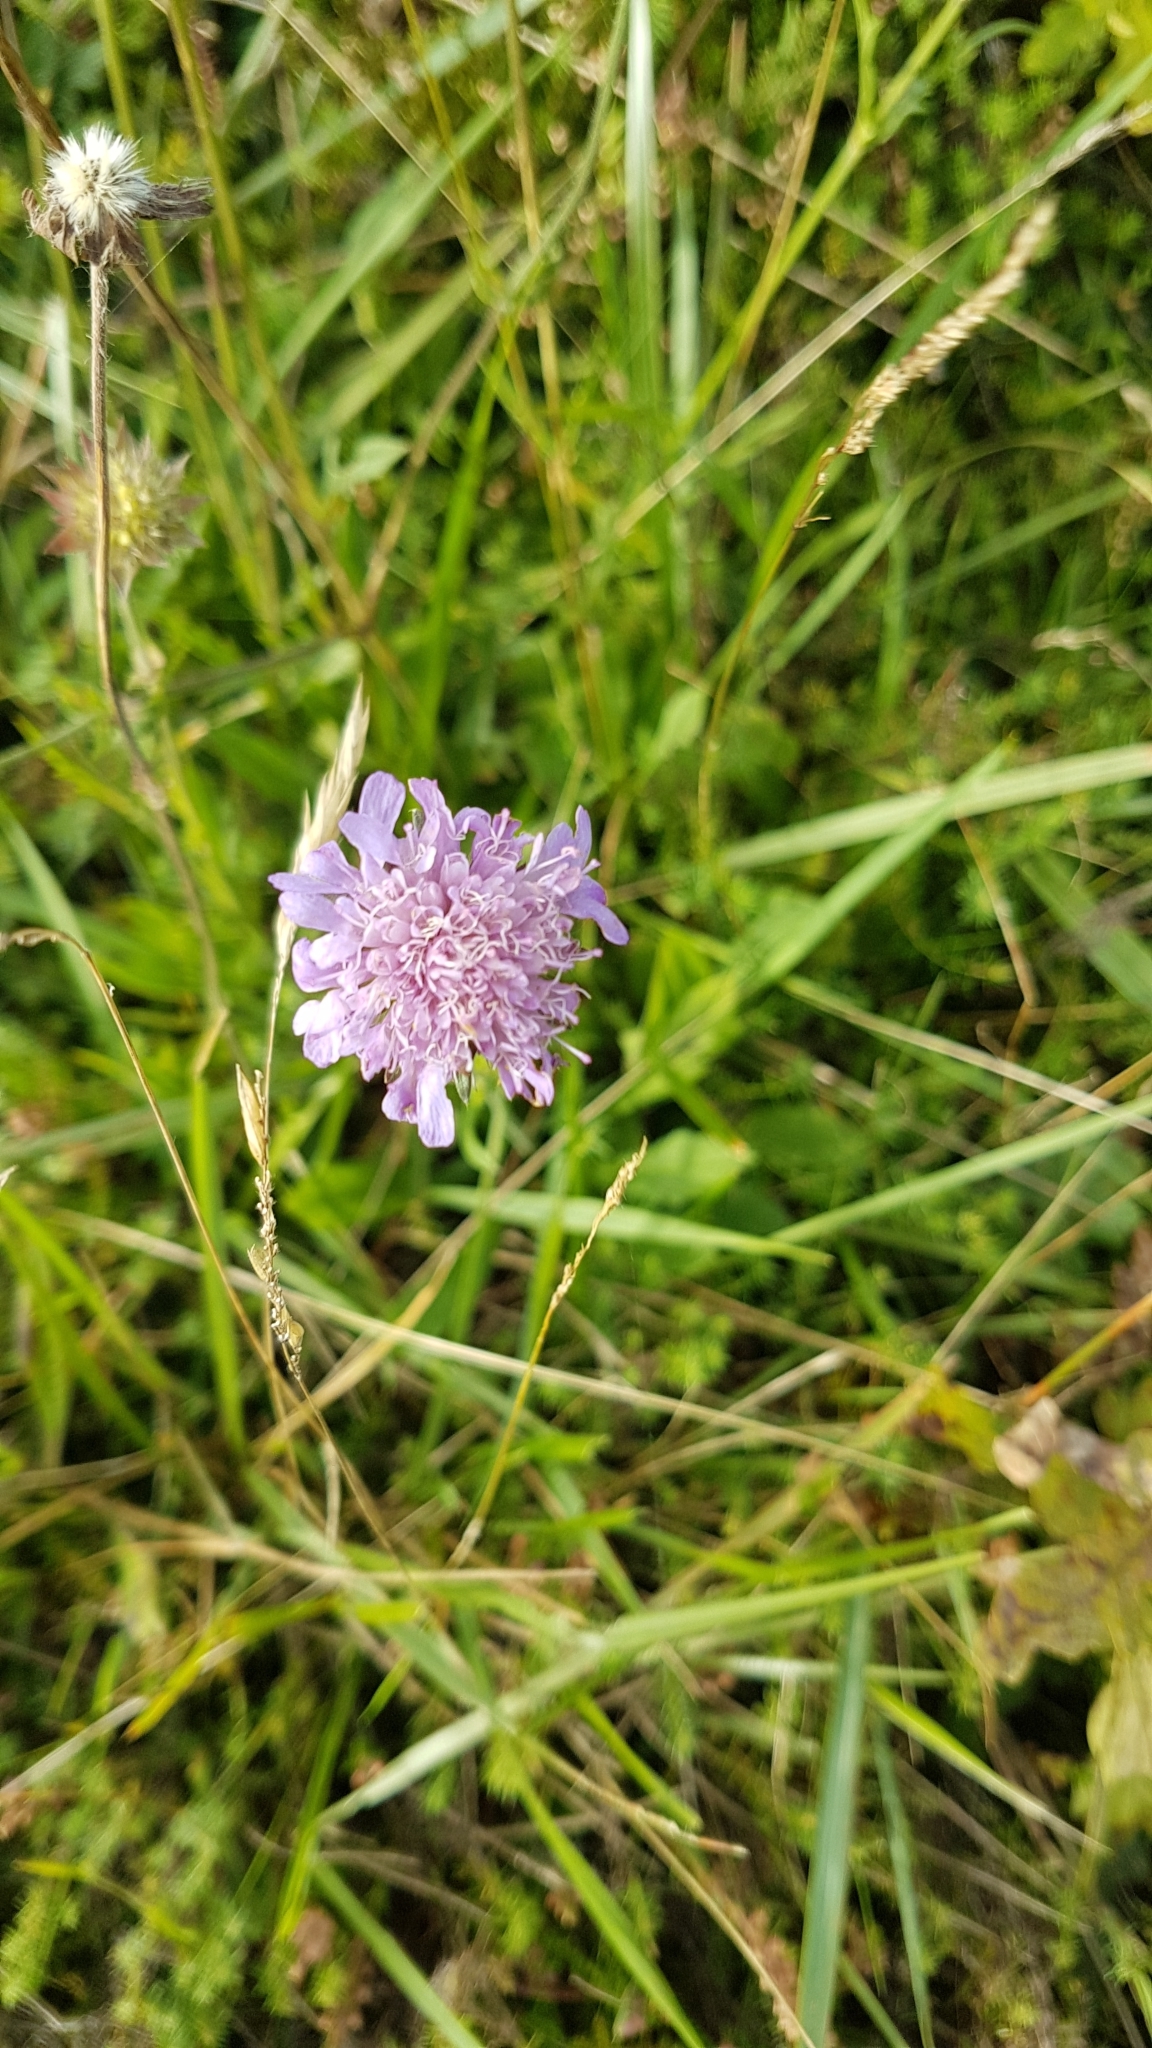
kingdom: Plantae
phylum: Tracheophyta
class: Magnoliopsida
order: Dipsacales
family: Caprifoliaceae
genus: Knautia
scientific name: Knautia arvensis
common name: Field scabiosa
